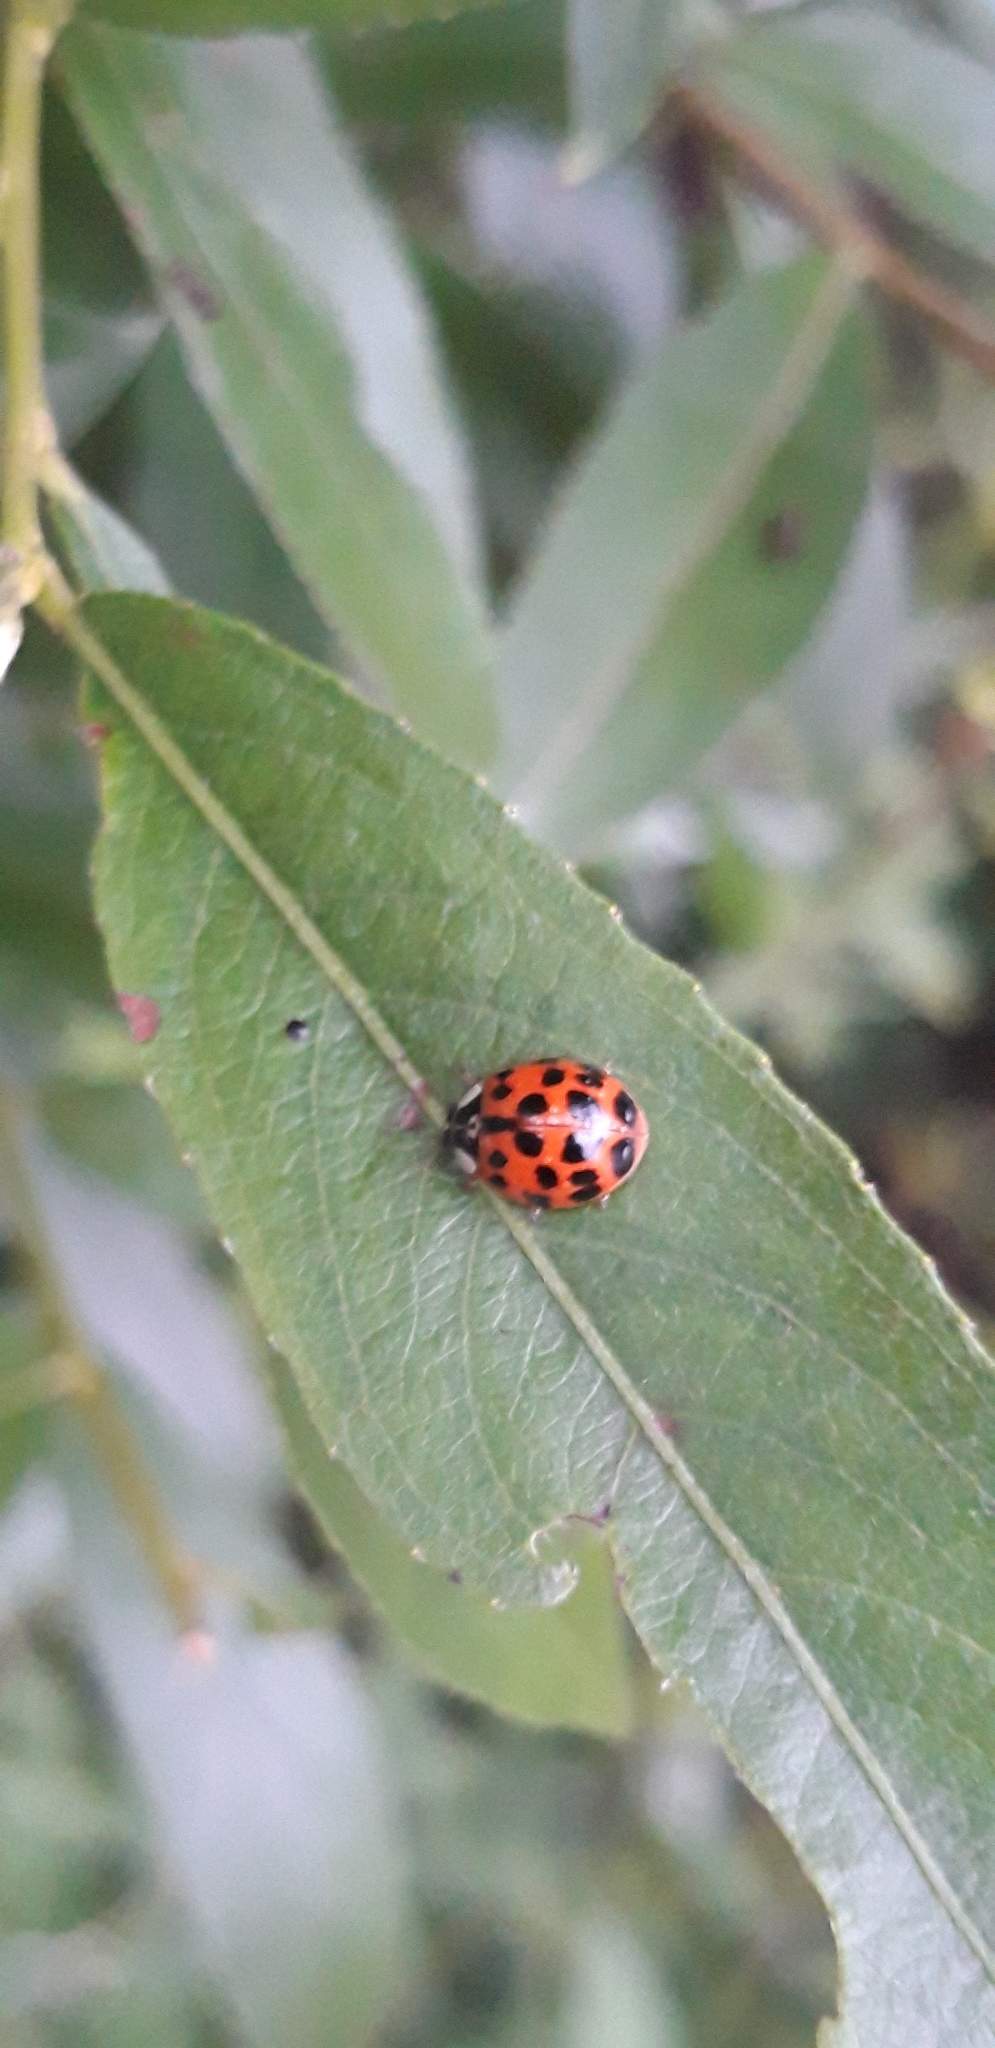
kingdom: Animalia
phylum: Arthropoda
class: Insecta
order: Coleoptera
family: Coccinellidae
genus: Harmonia
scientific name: Harmonia axyridis
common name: Harlequin ladybird
